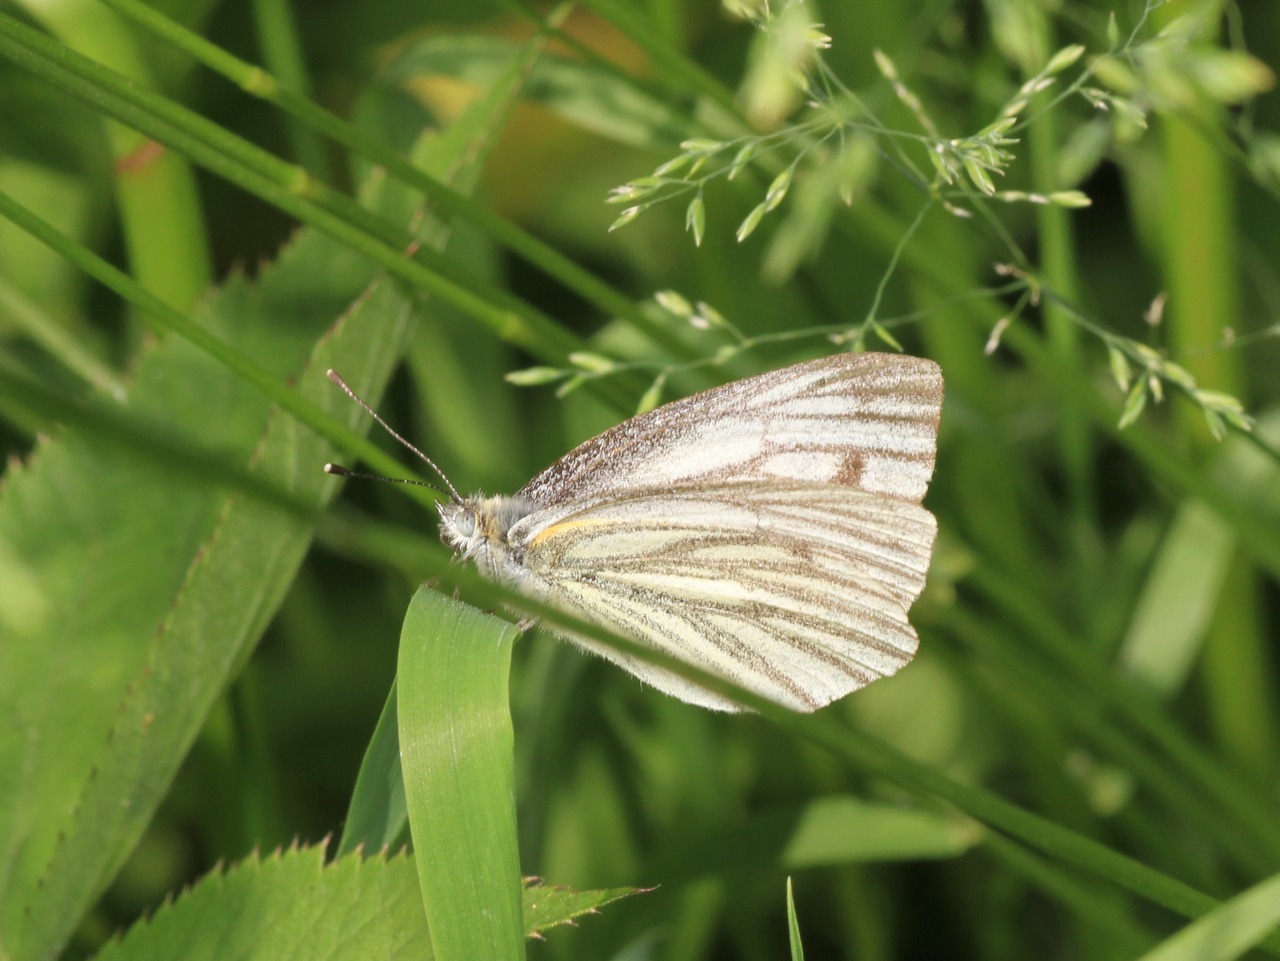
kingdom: Animalia
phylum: Arthropoda
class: Insecta
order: Lepidoptera
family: Pieridae
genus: Pieris
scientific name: Pieris napi
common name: Green-veined white
